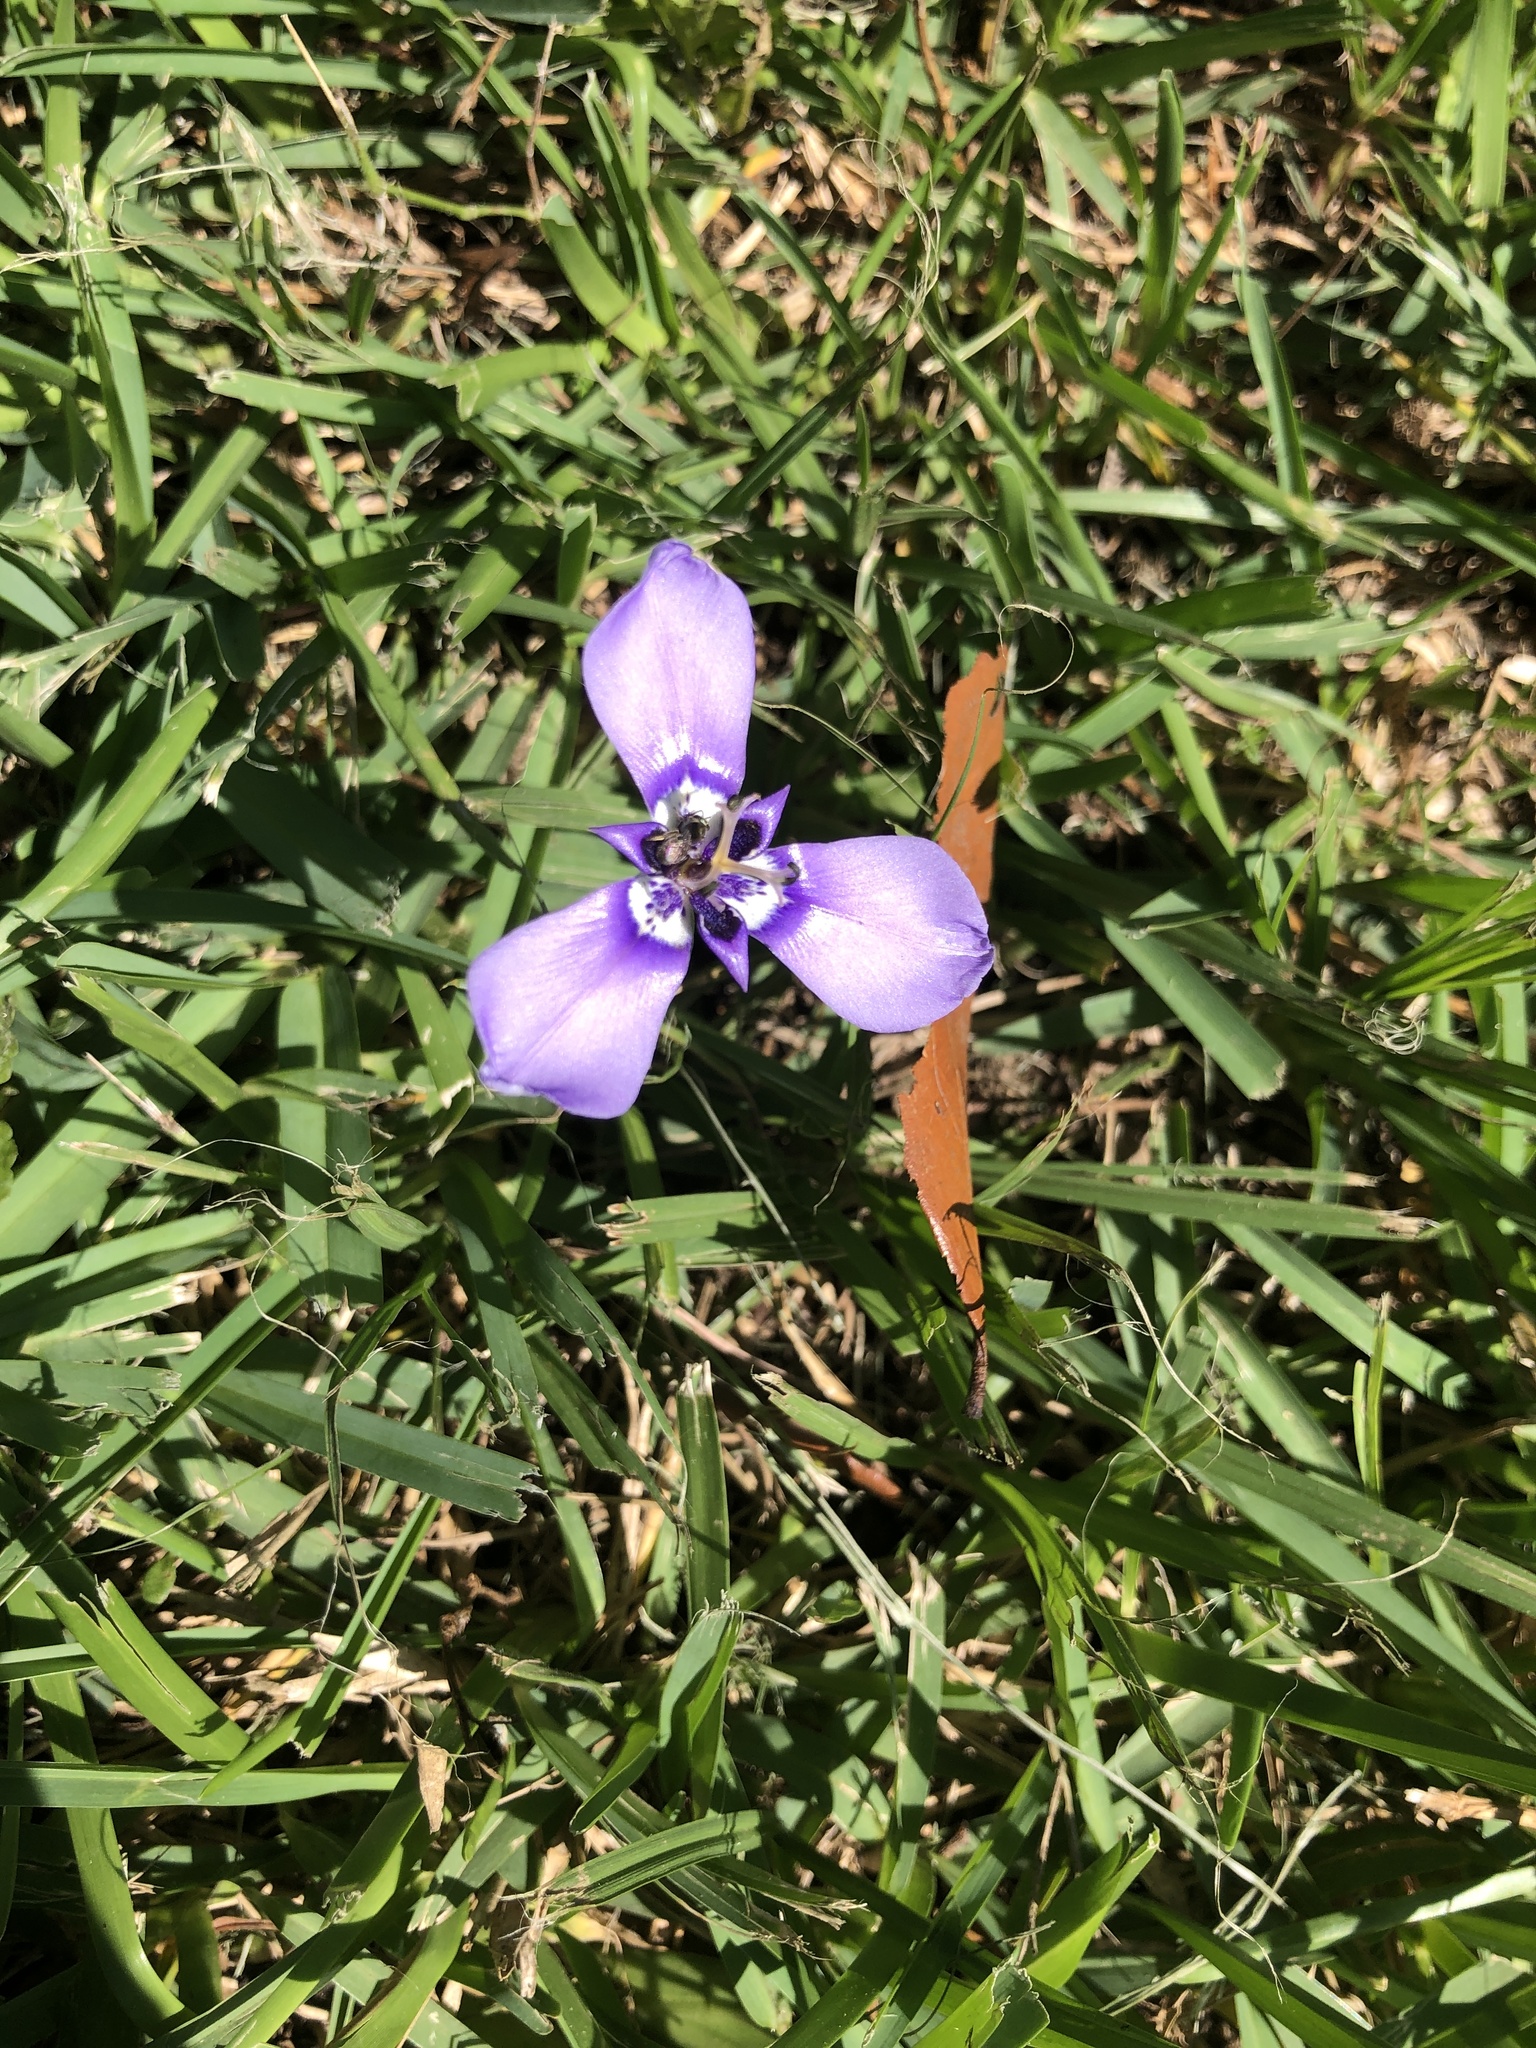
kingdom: Plantae
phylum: Tracheophyta
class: Liliopsida
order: Asparagales
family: Iridaceae
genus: Herbertia
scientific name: Herbertia lahue
